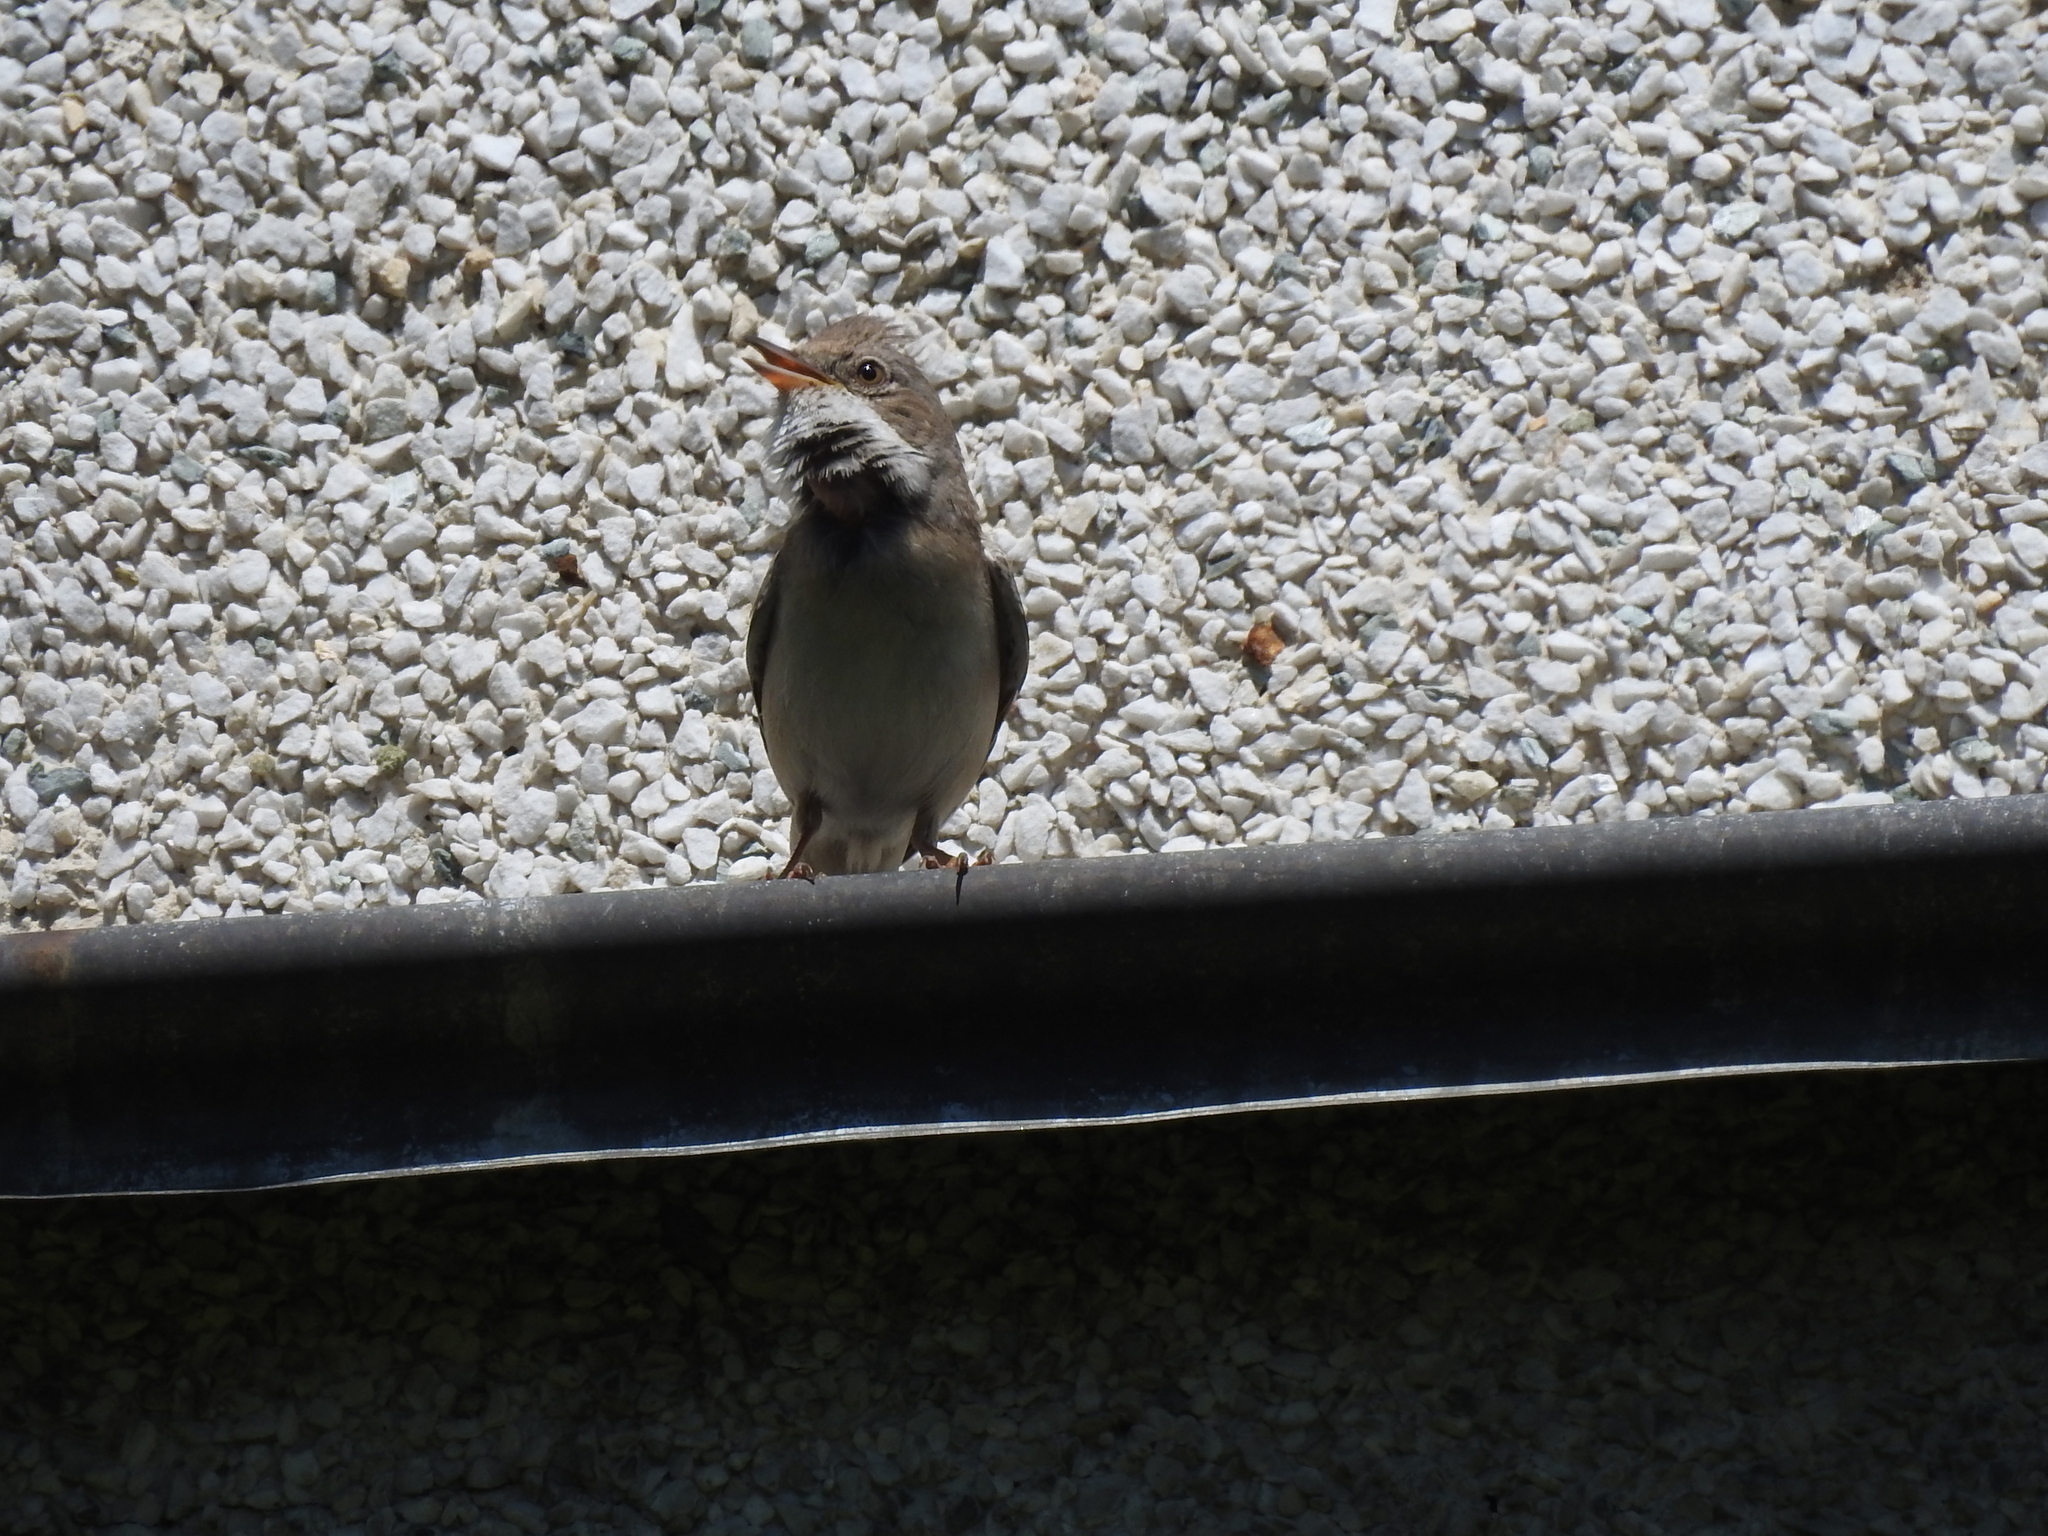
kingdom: Animalia
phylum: Chordata
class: Aves
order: Passeriformes
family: Sylviidae
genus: Sylvia
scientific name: Sylvia communis
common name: Common whitethroat
